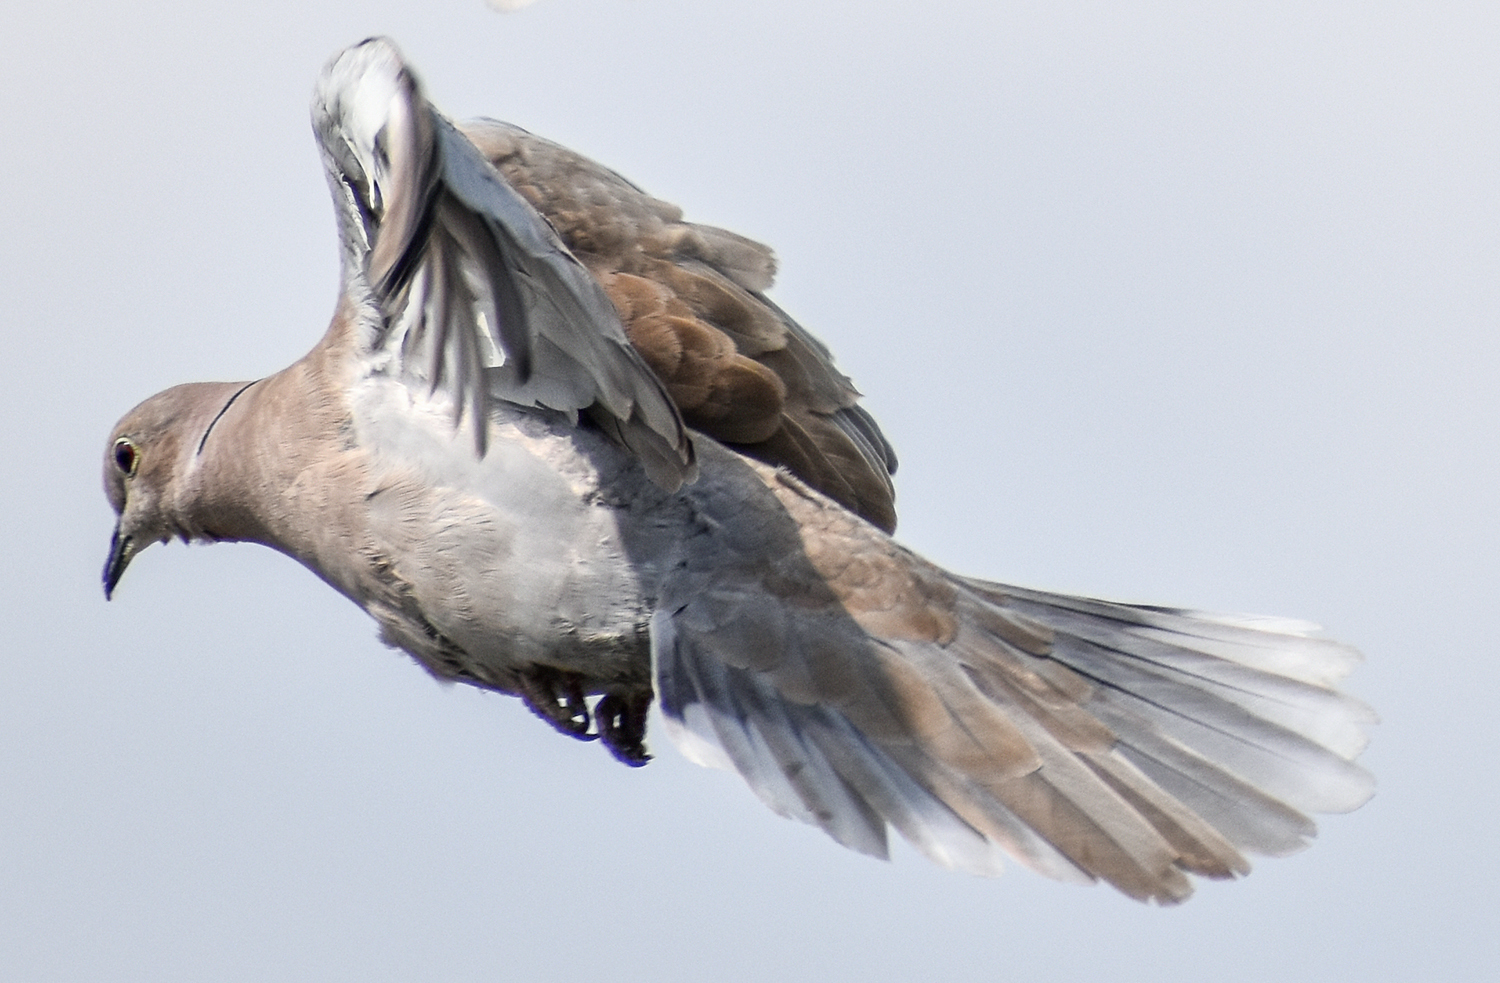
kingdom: Animalia
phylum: Chordata
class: Aves
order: Columbiformes
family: Columbidae
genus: Streptopelia
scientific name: Streptopelia decaocto
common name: Eurasian collared dove
